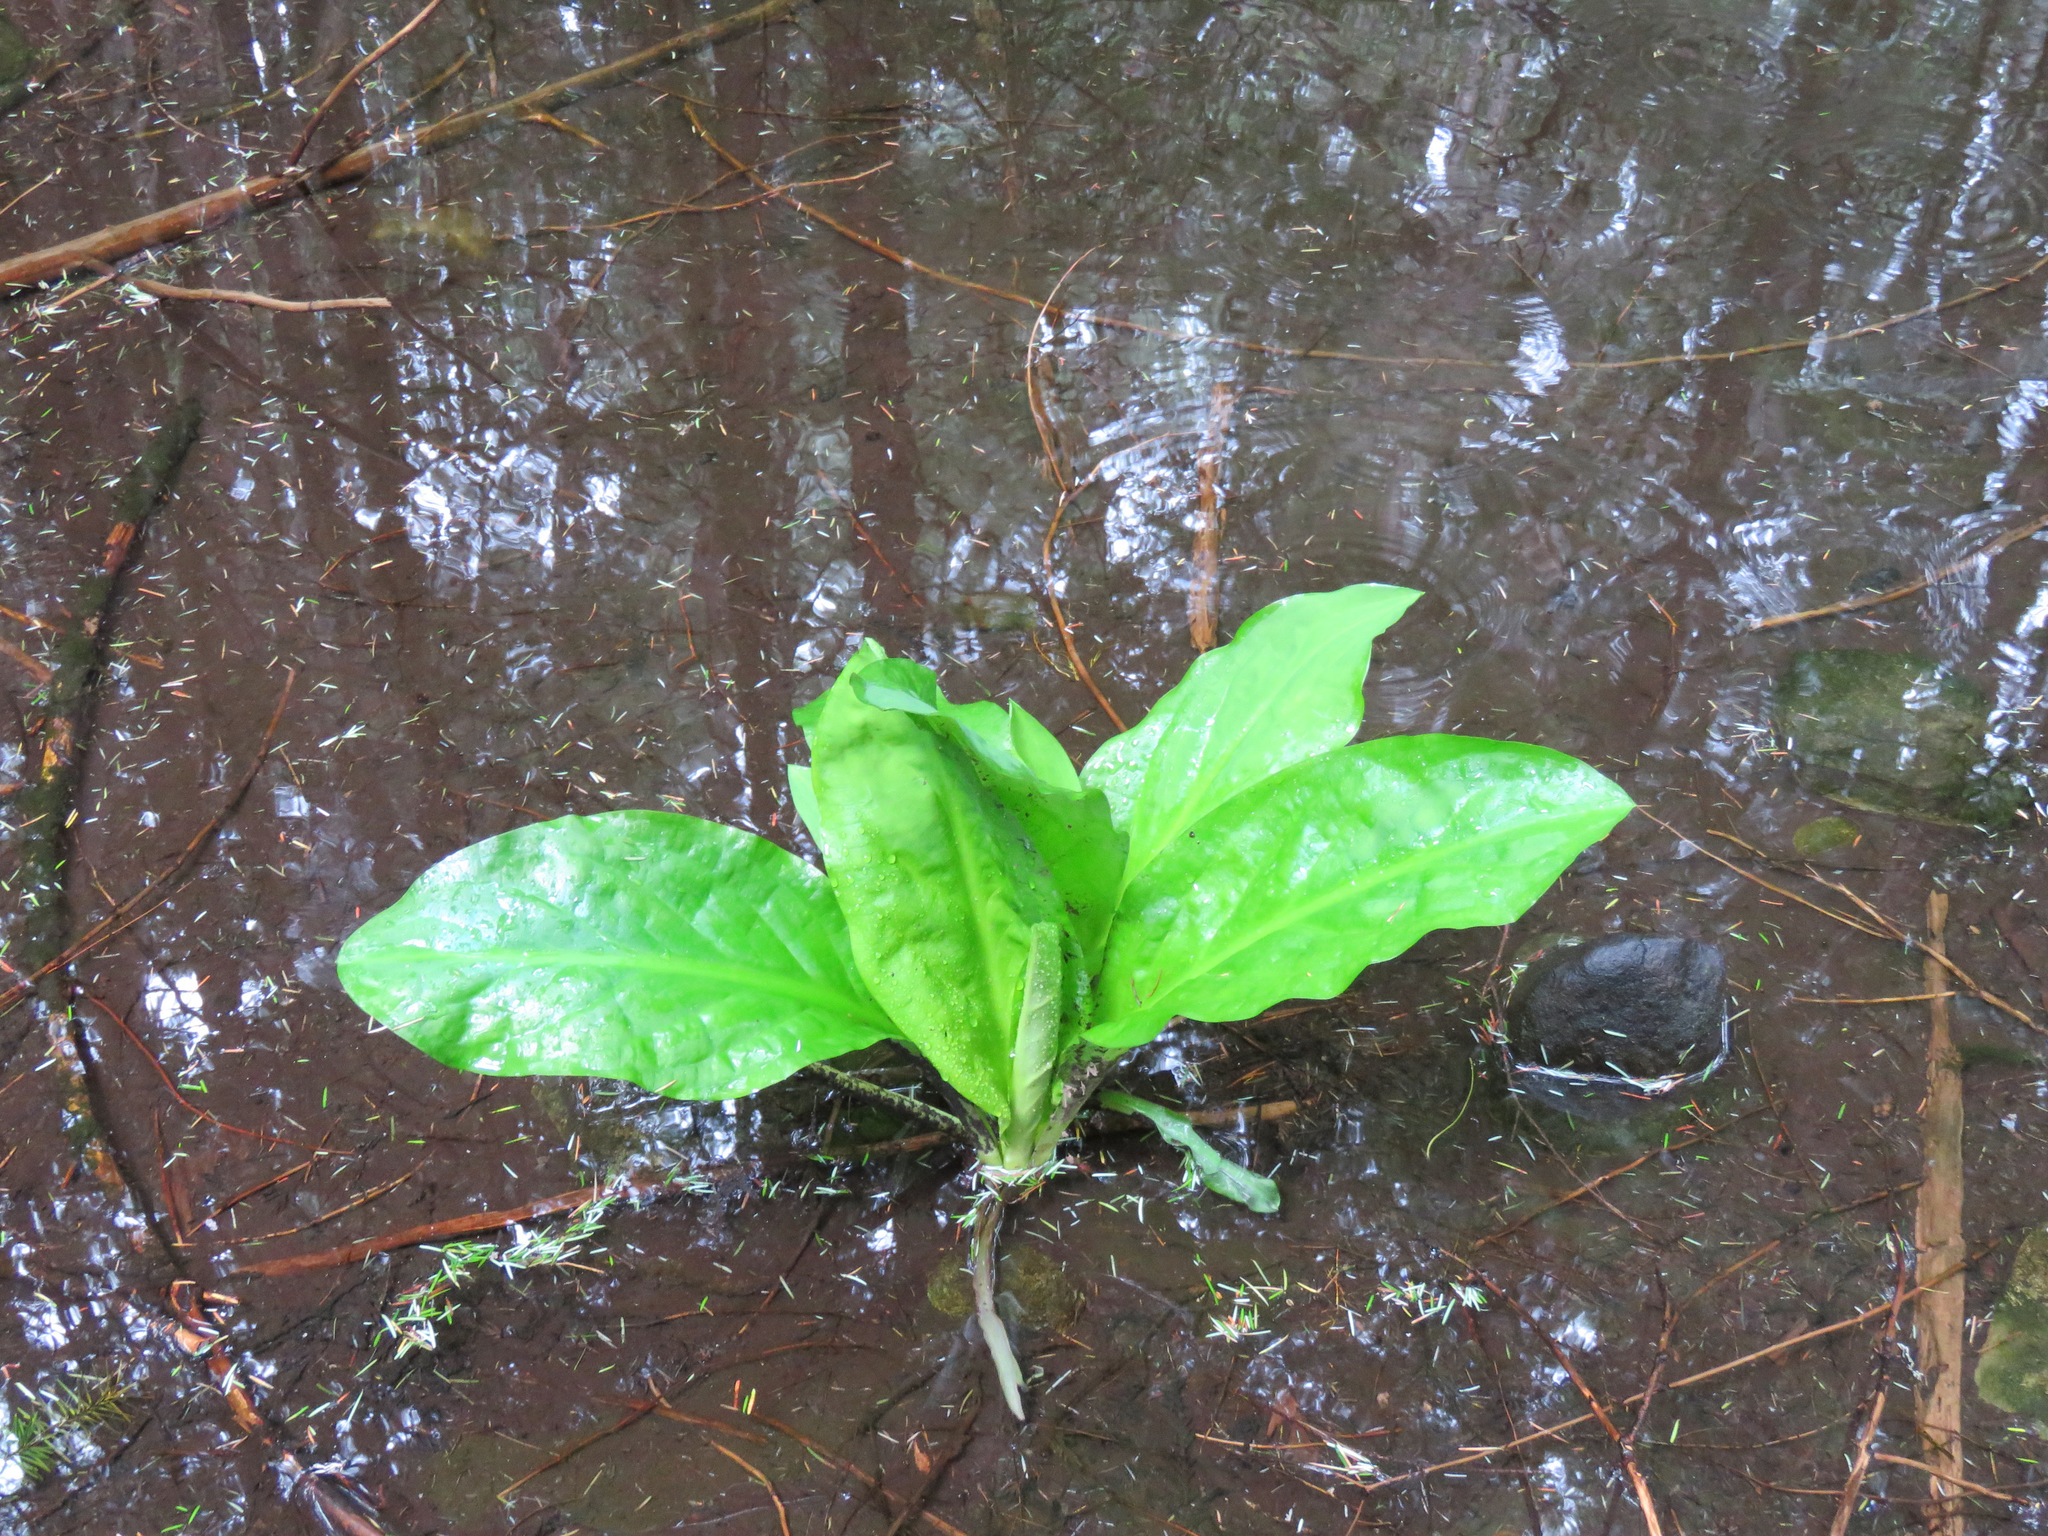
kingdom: Plantae
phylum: Tracheophyta
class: Liliopsida
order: Alismatales
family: Araceae
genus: Lysichiton
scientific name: Lysichiton americanus
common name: American skunk cabbage
